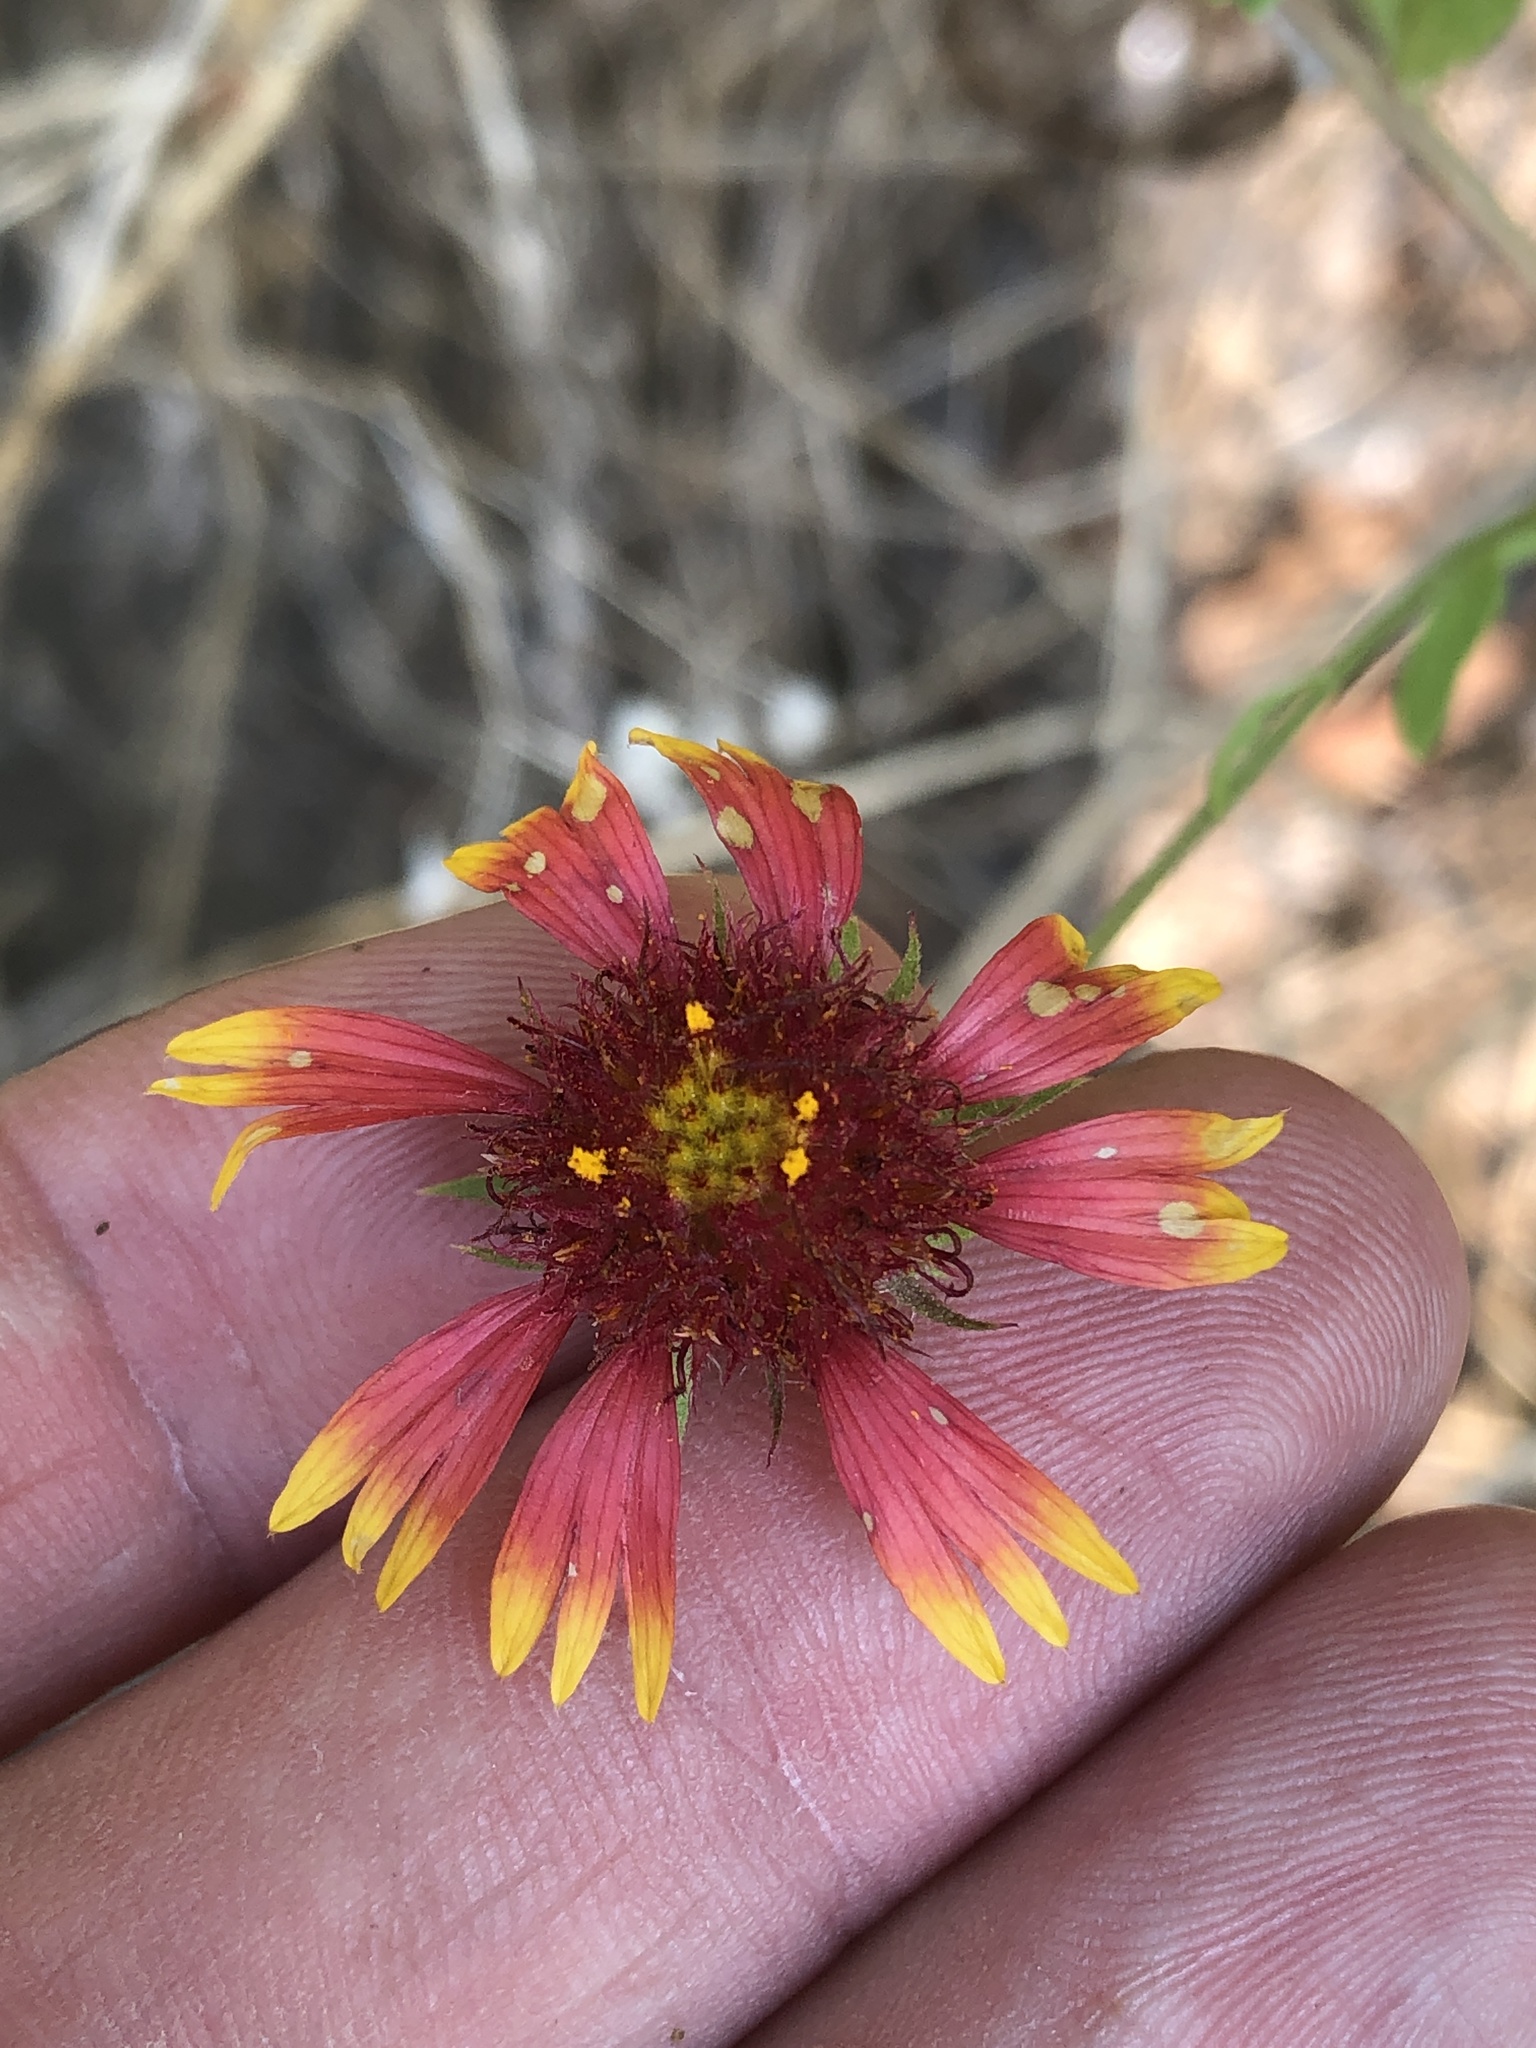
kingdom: Plantae
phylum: Tracheophyta
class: Magnoliopsida
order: Asterales
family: Asteraceae
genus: Gaillardia
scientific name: Gaillardia aestivalis
